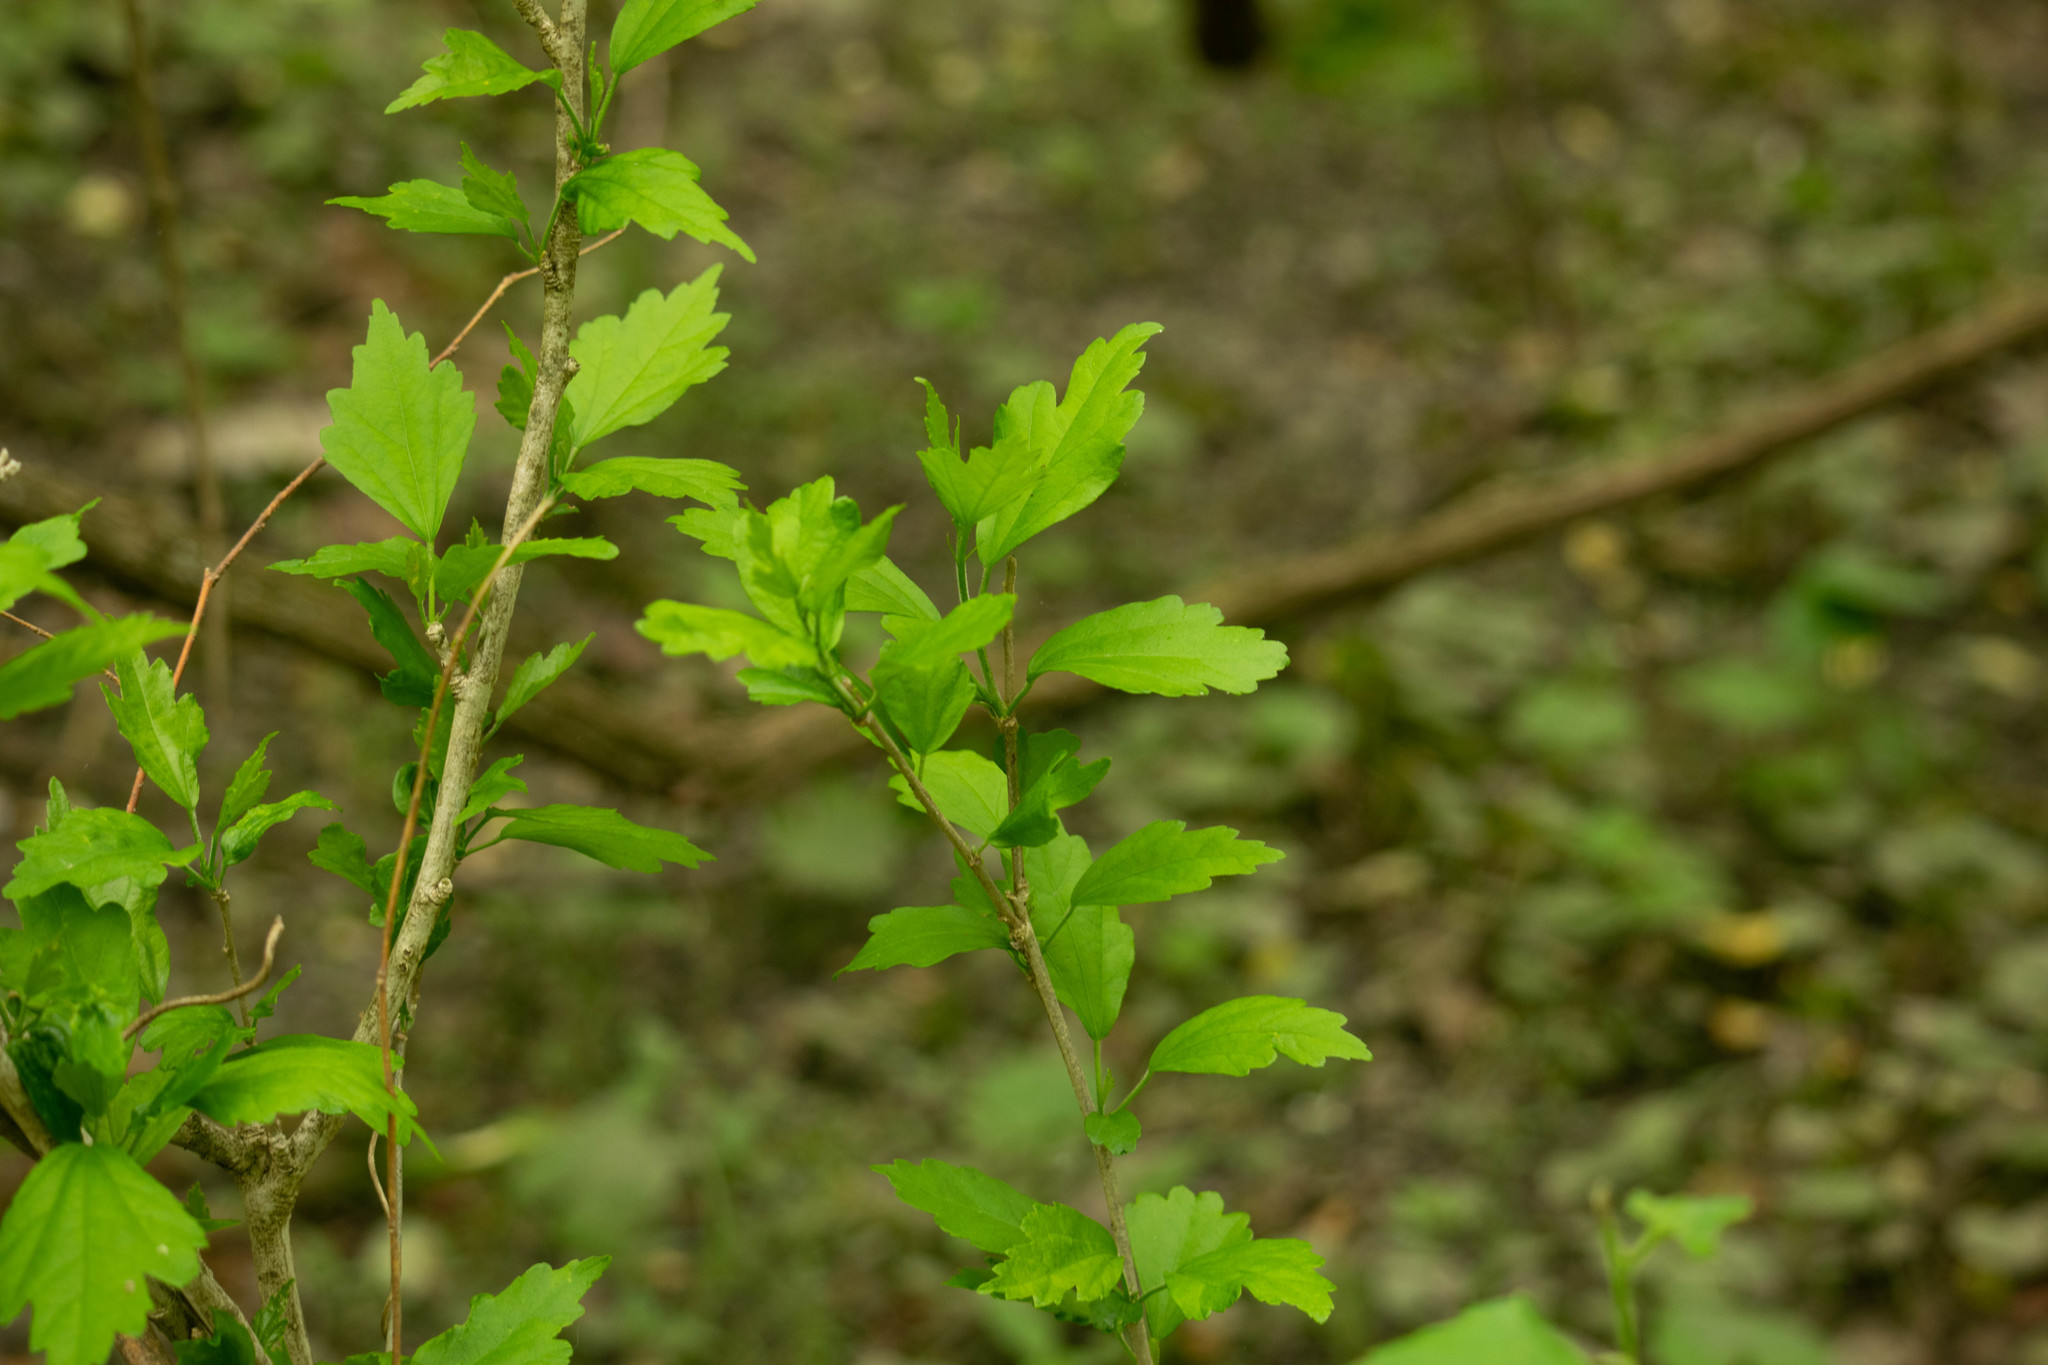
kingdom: Plantae
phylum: Tracheophyta
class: Magnoliopsida
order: Malvales
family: Malvaceae
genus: Hibiscus
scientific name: Hibiscus syriacus
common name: Syrian ketmia
